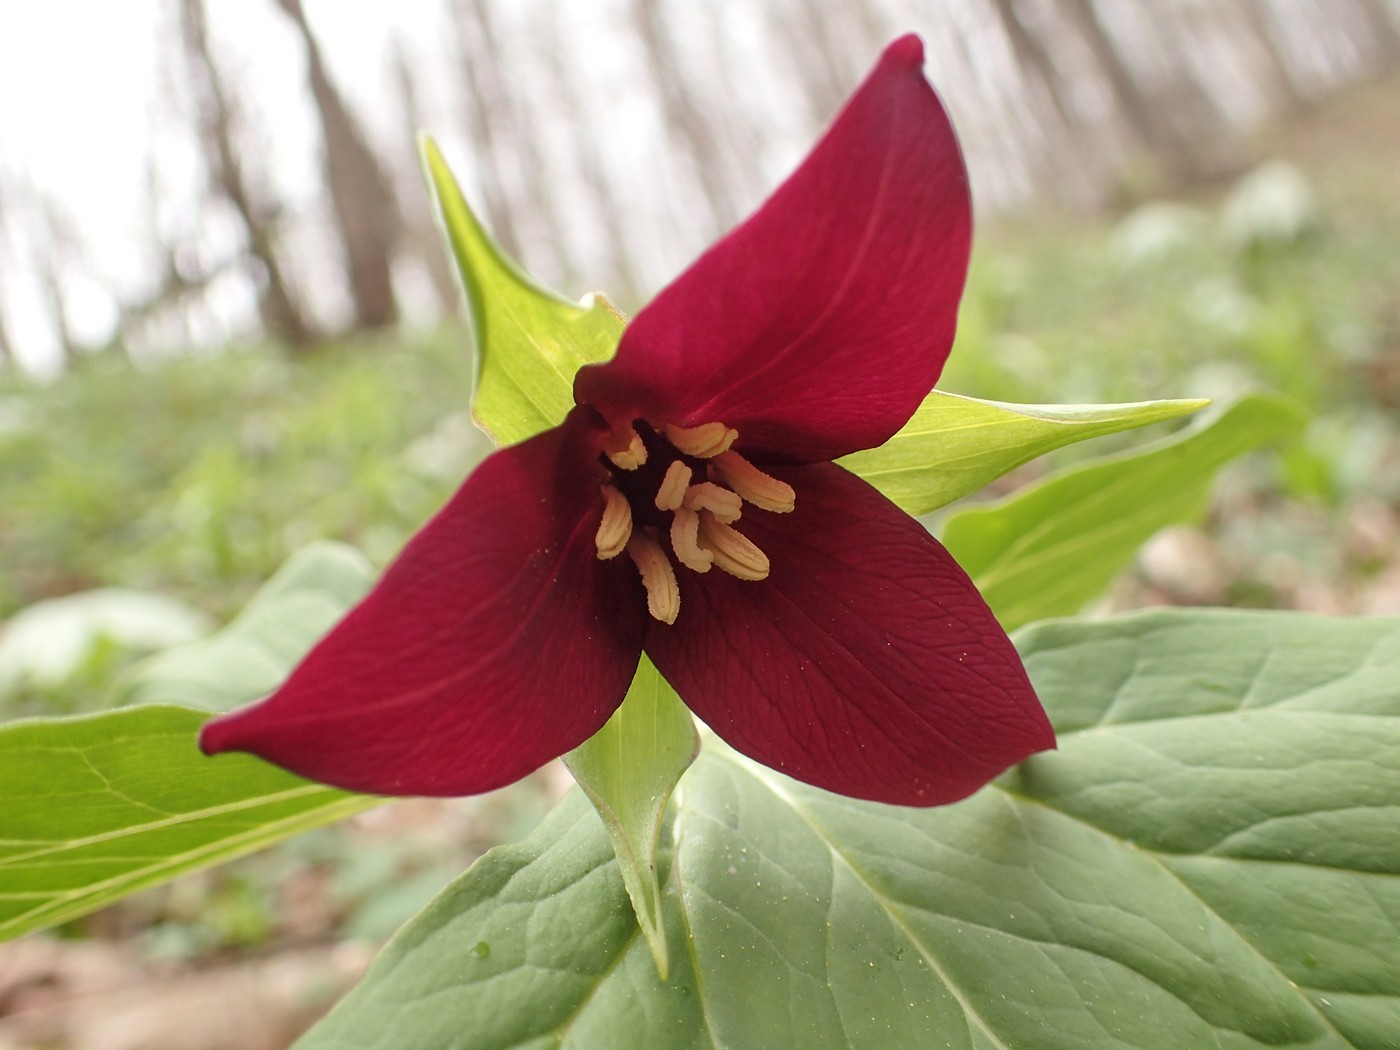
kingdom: Plantae
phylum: Tracheophyta
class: Liliopsida
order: Liliales
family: Melanthiaceae
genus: Trillium
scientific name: Trillium erectum
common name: Purple trillium
